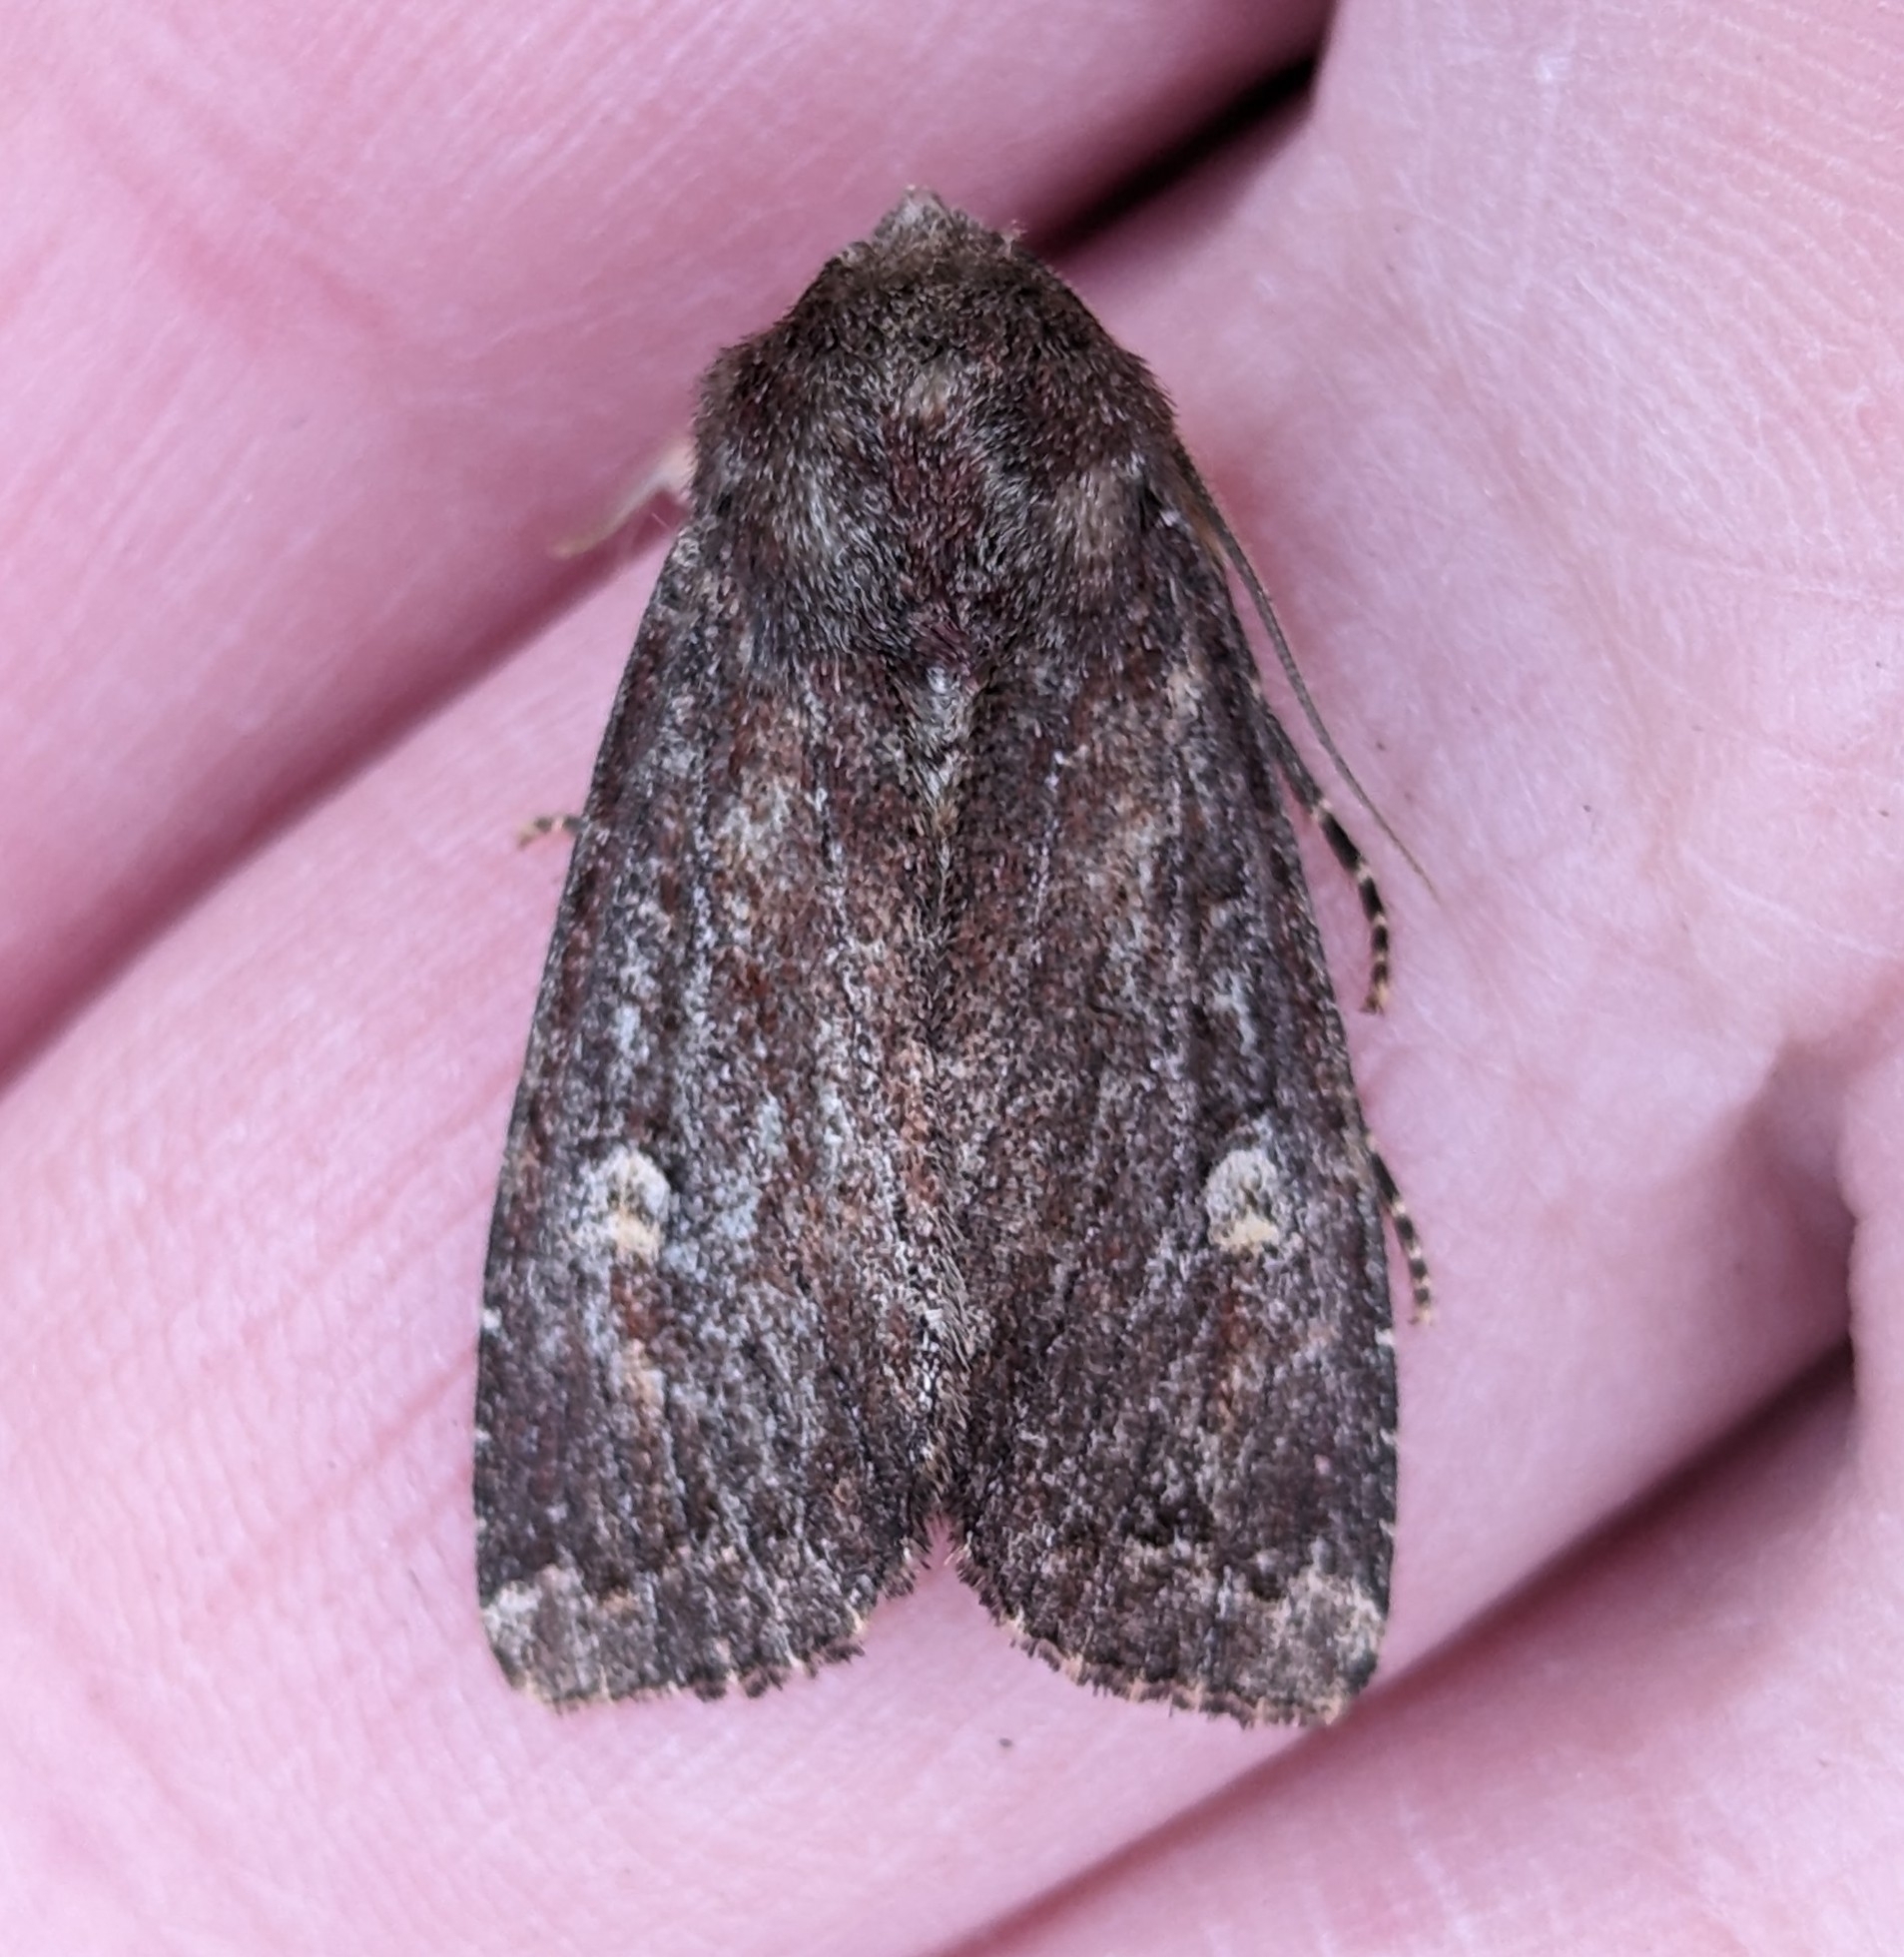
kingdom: Animalia
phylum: Arthropoda
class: Insecta
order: Lepidoptera
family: Noctuidae
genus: Apamea
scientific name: Apamea cogitata
